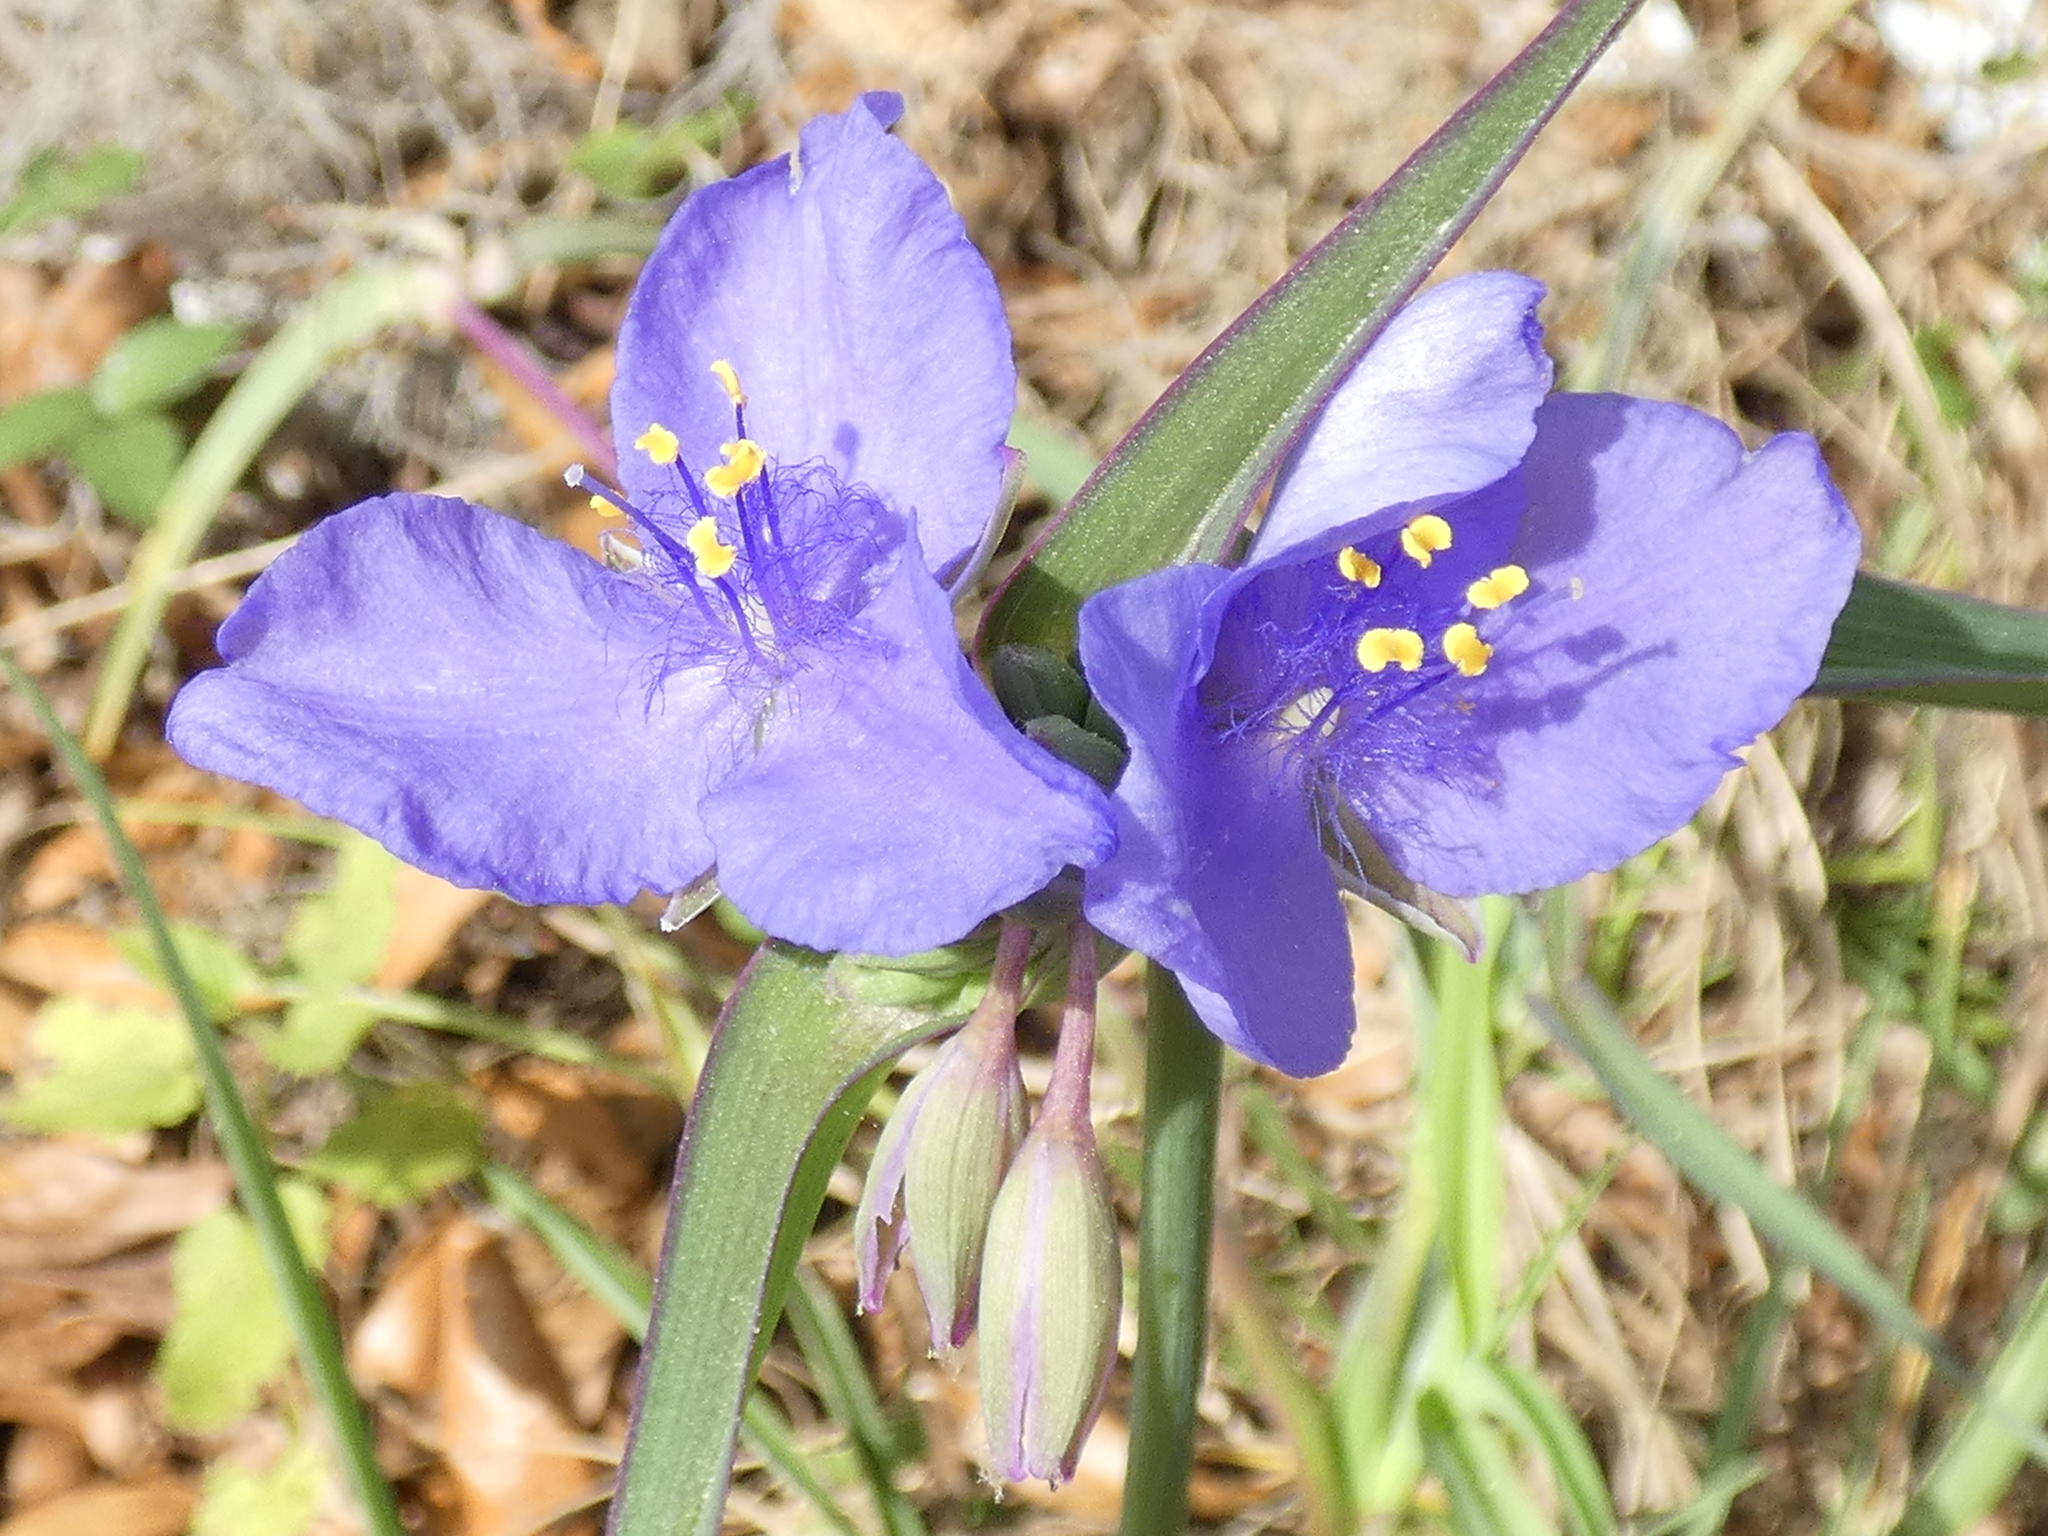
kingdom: Plantae
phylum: Tracheophyta
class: Liliopsida
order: Commelinales
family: Commelinaceae
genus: Tradescantia
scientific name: Tradescantia ohiensis
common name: Ohio spiderwort
